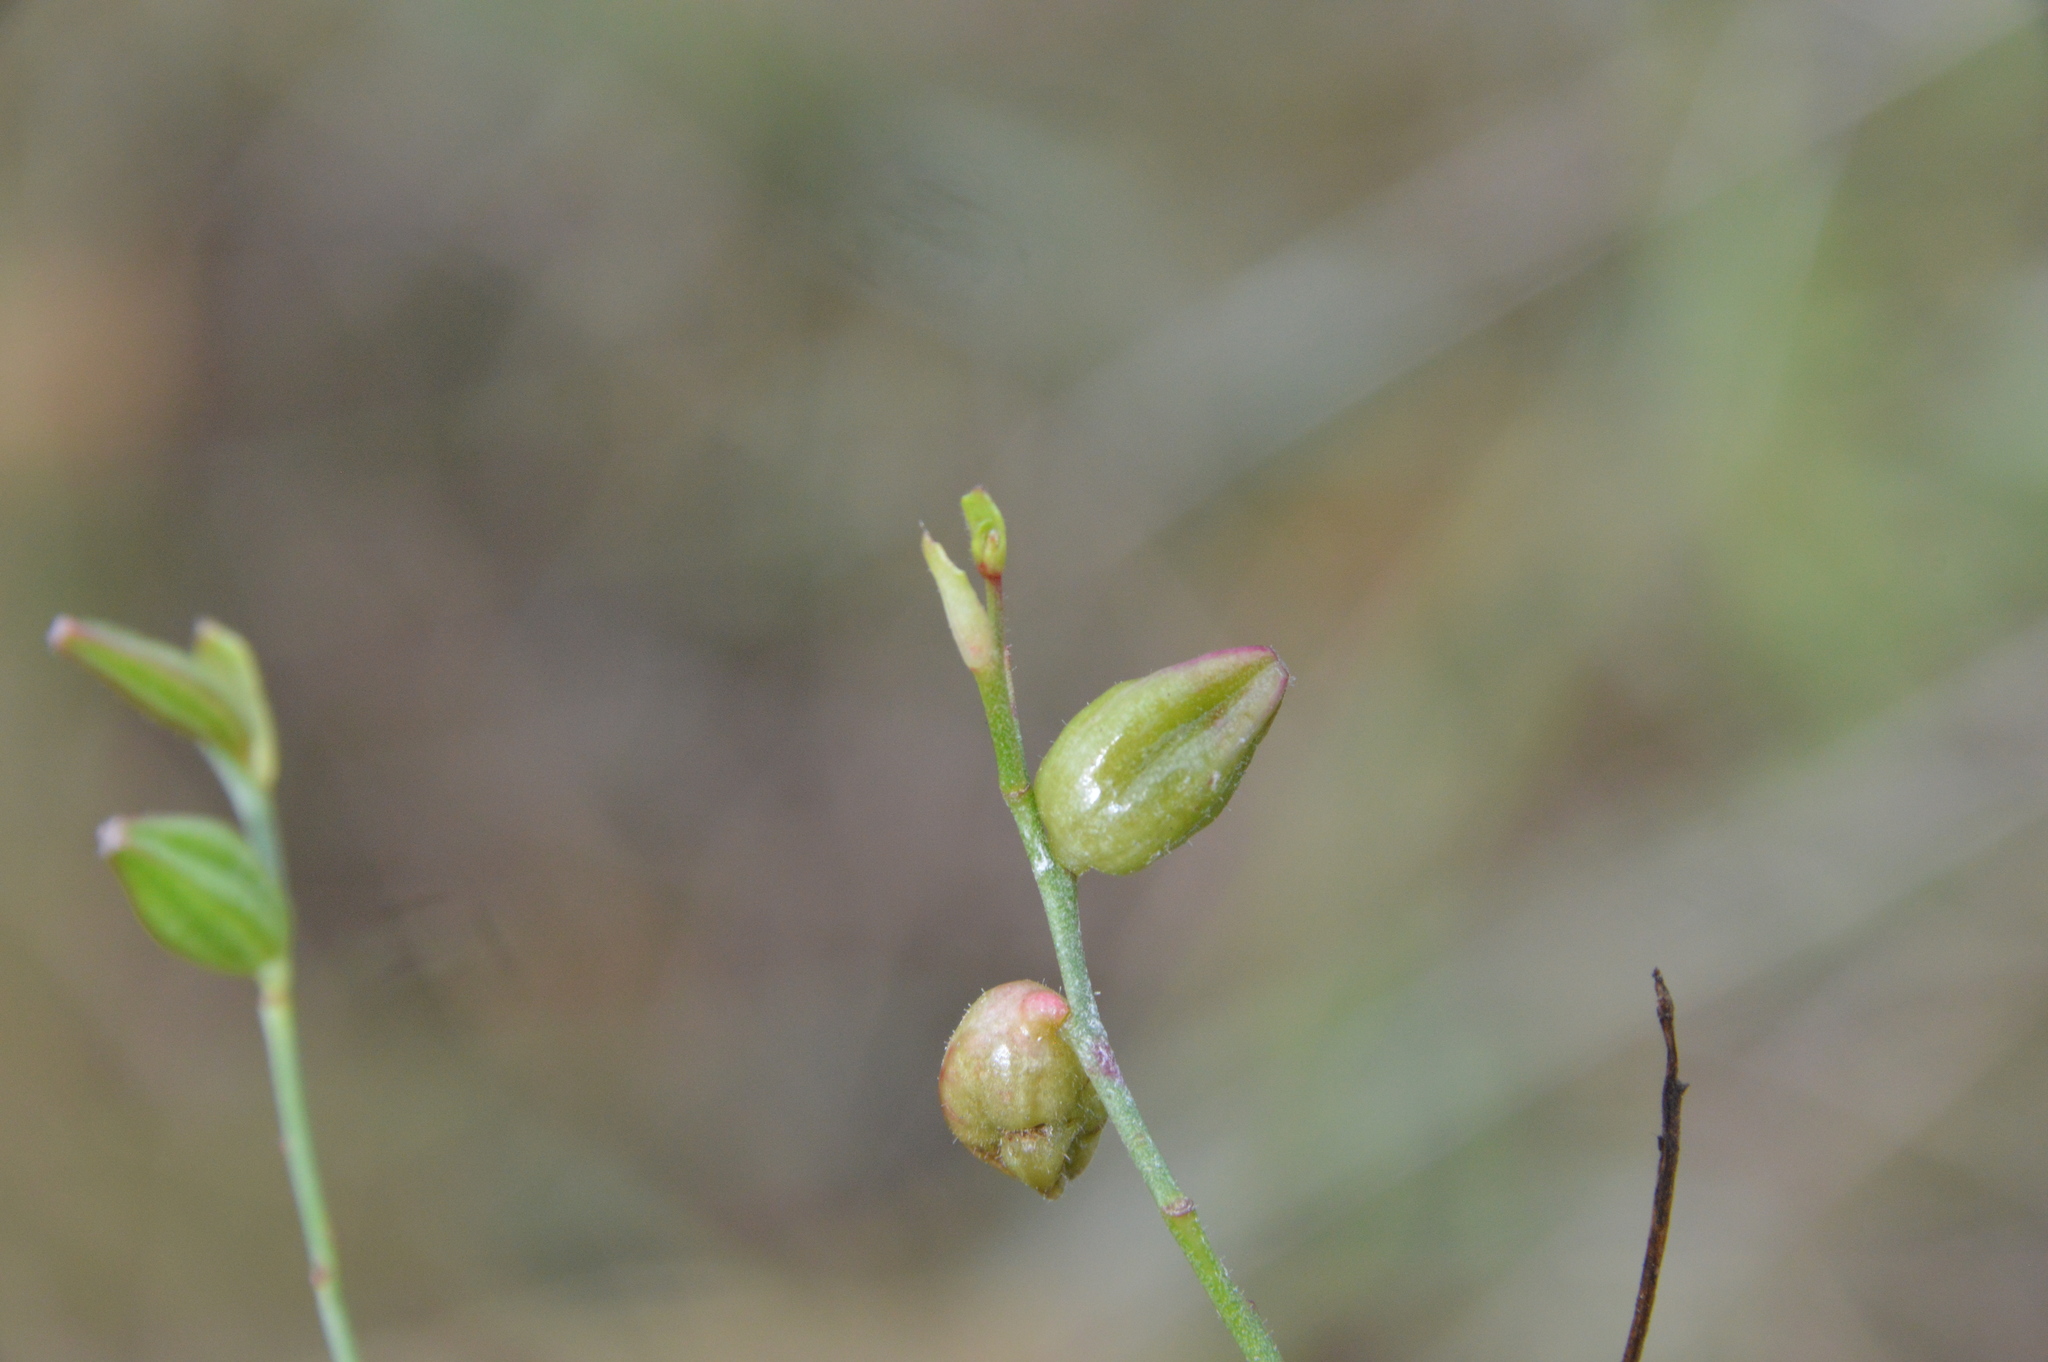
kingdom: Plantae
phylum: Tracheophyta
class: Magnoliopsida
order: Myrtales
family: Onagraceae
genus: Oenothera
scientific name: Oenothera lindheimeri
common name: Lindheimer's beeblossom
